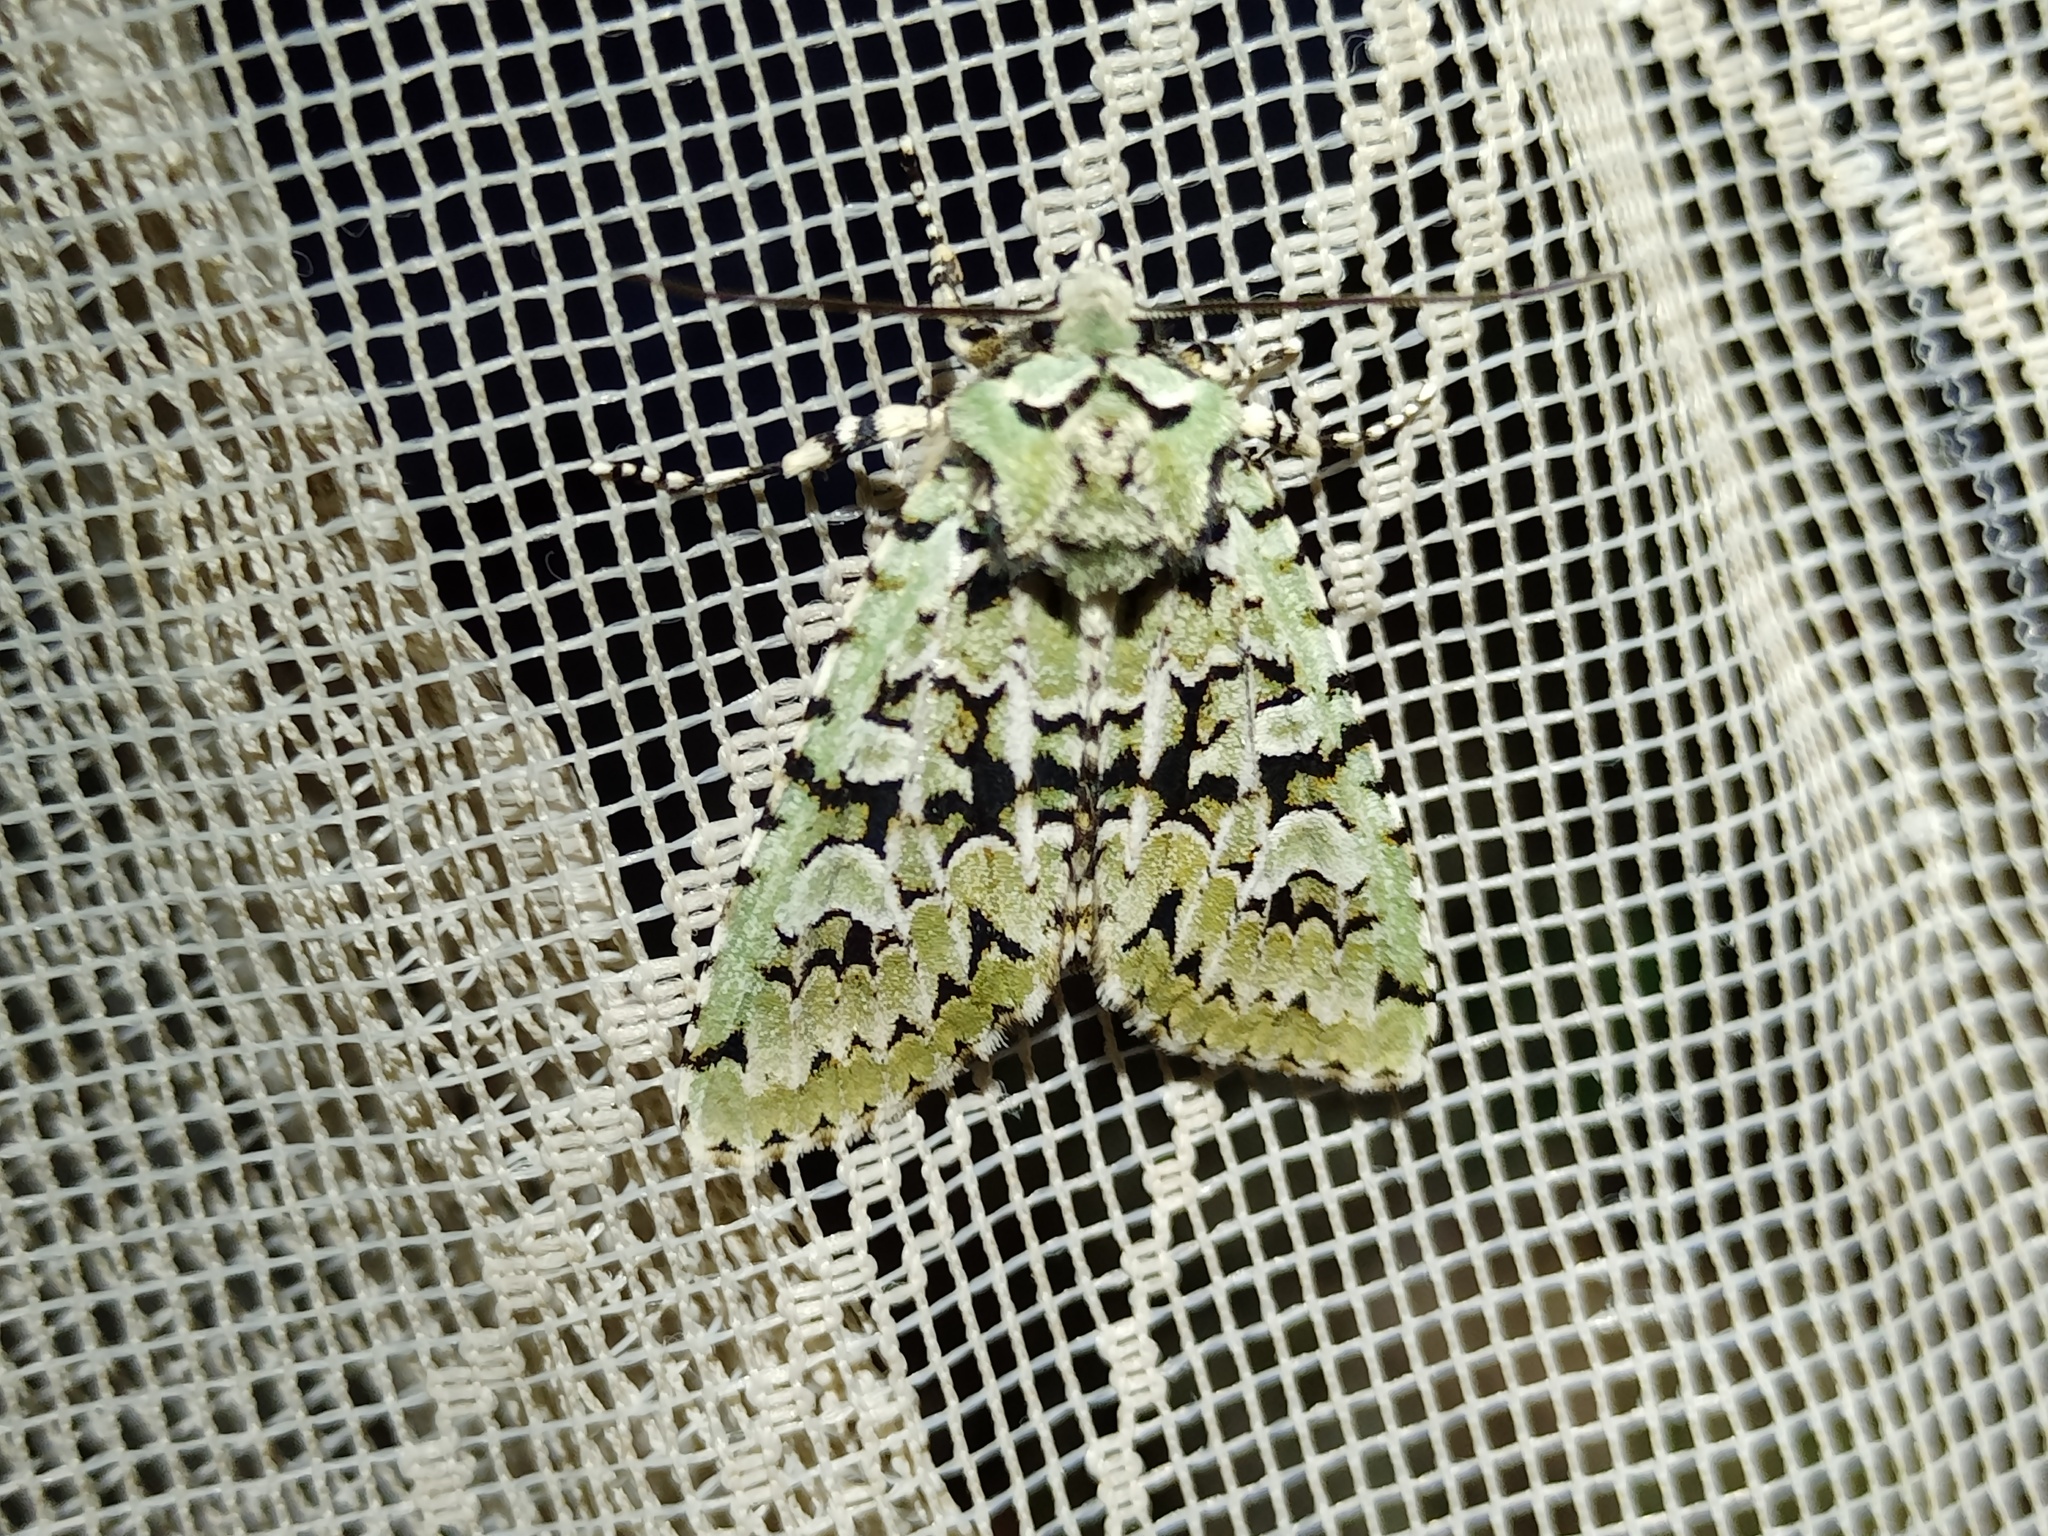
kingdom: Animalia
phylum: Arthropoda
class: Insecta
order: Lepidoptera
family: Noctuidae
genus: Griposia
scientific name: Griposia aprilina
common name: Merveille du jour
